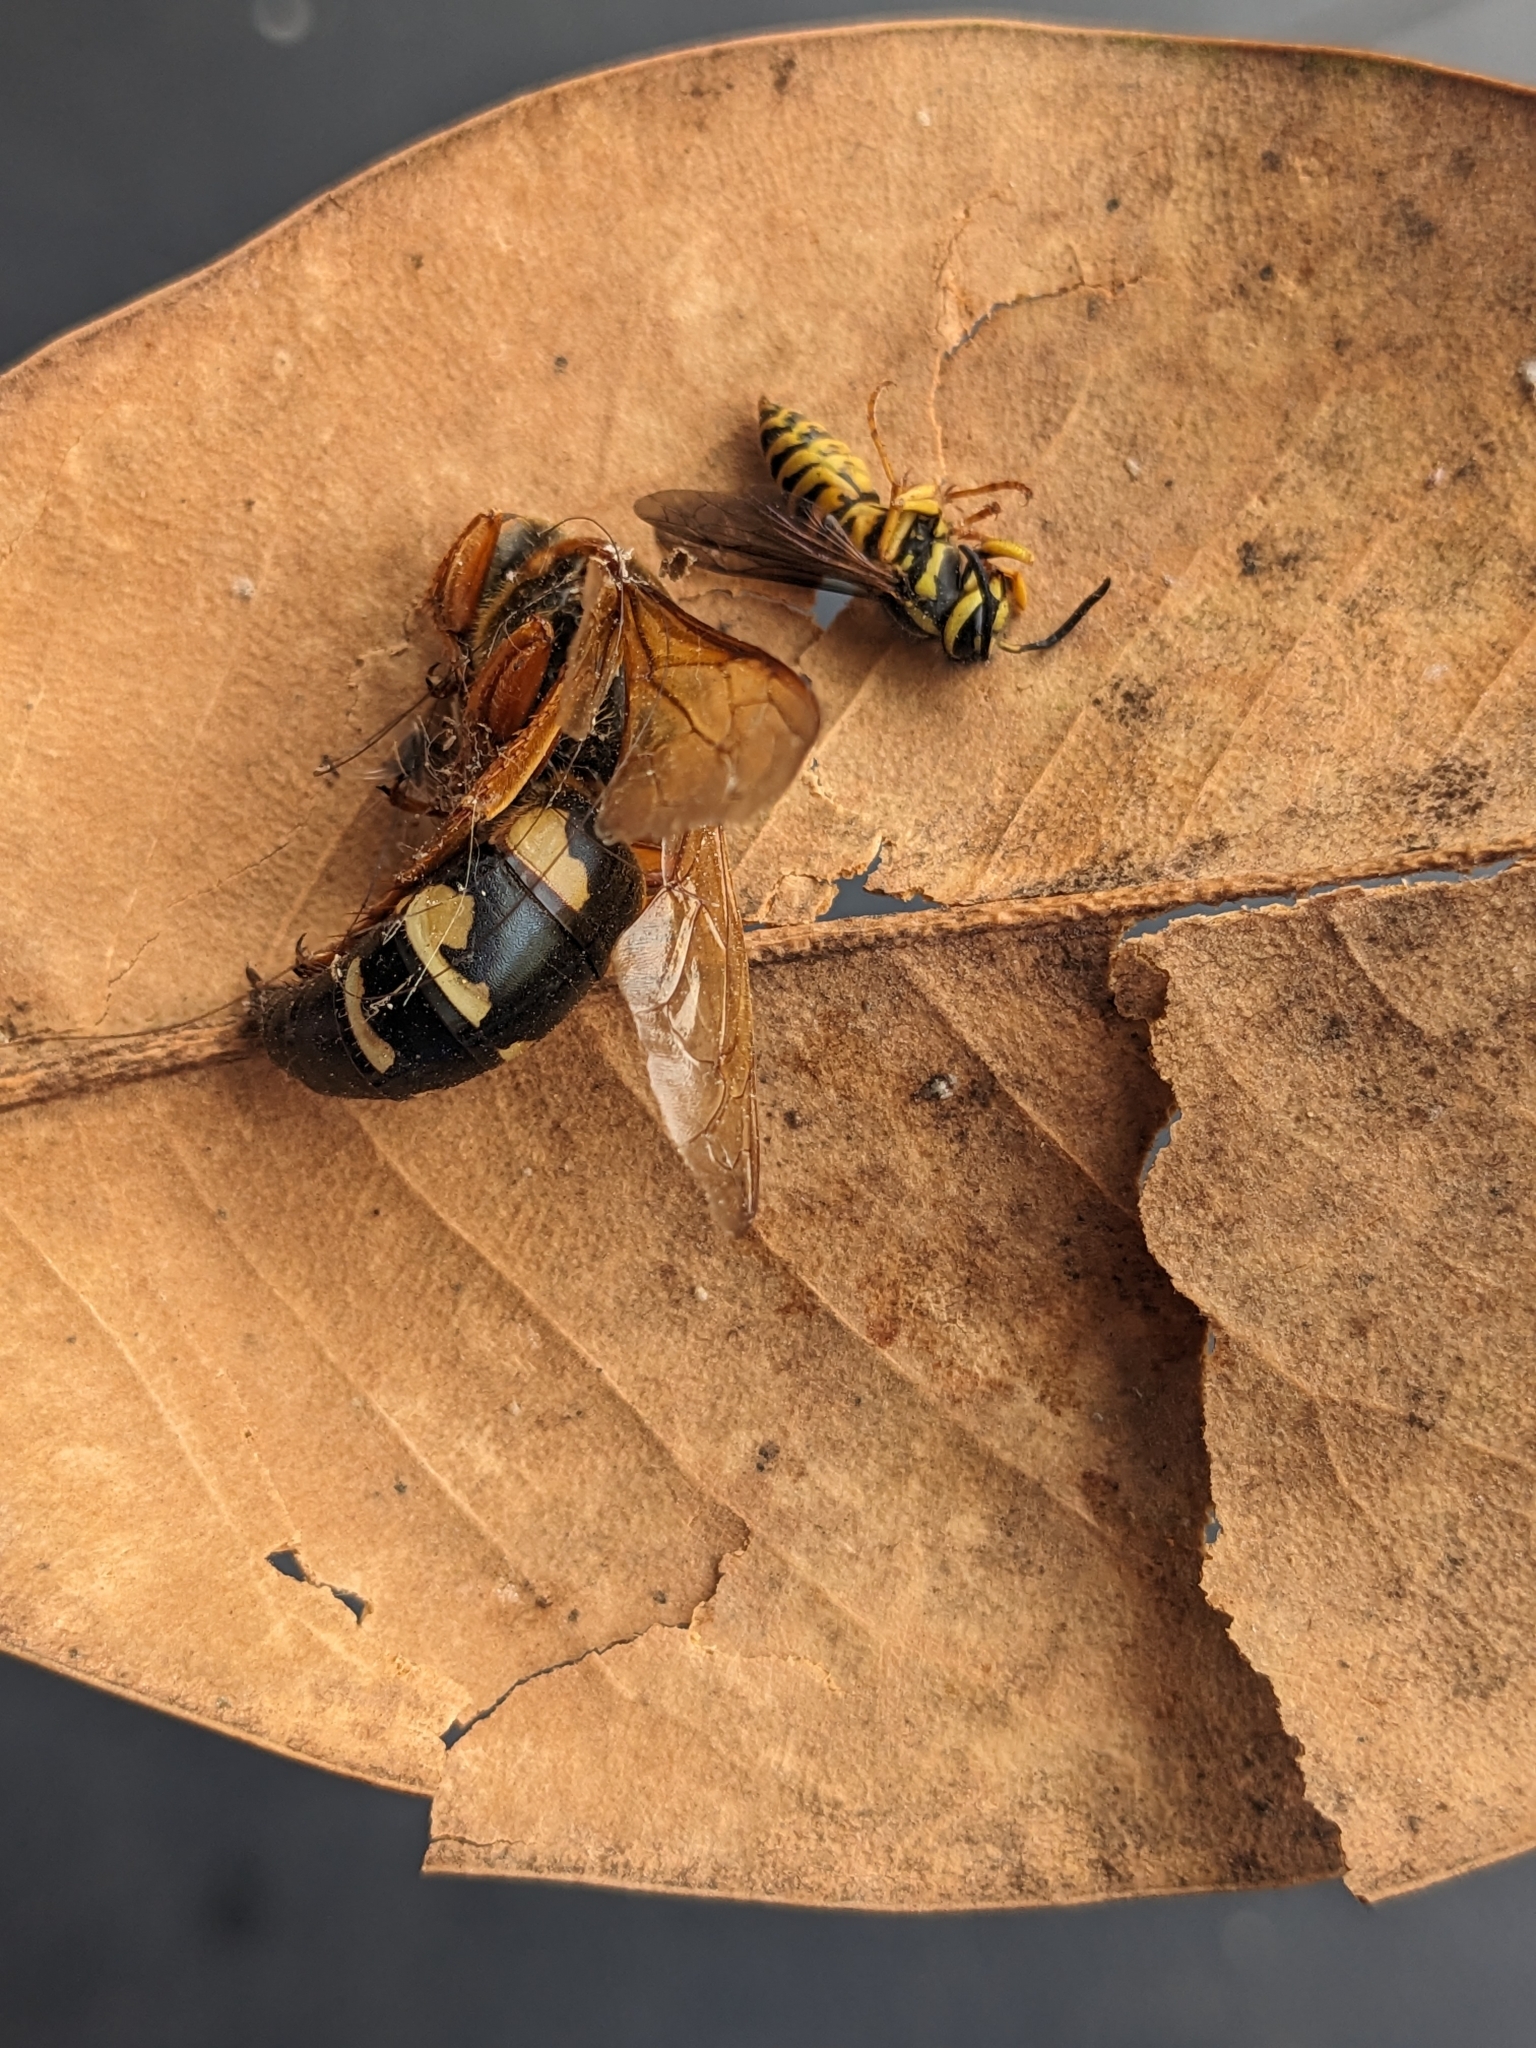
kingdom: Animalia
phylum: Arthropoda
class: Insecta
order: Hymenoptera
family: Crabronidae
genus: Sphecius
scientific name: Sphecius speciosus
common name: Cicada killer
